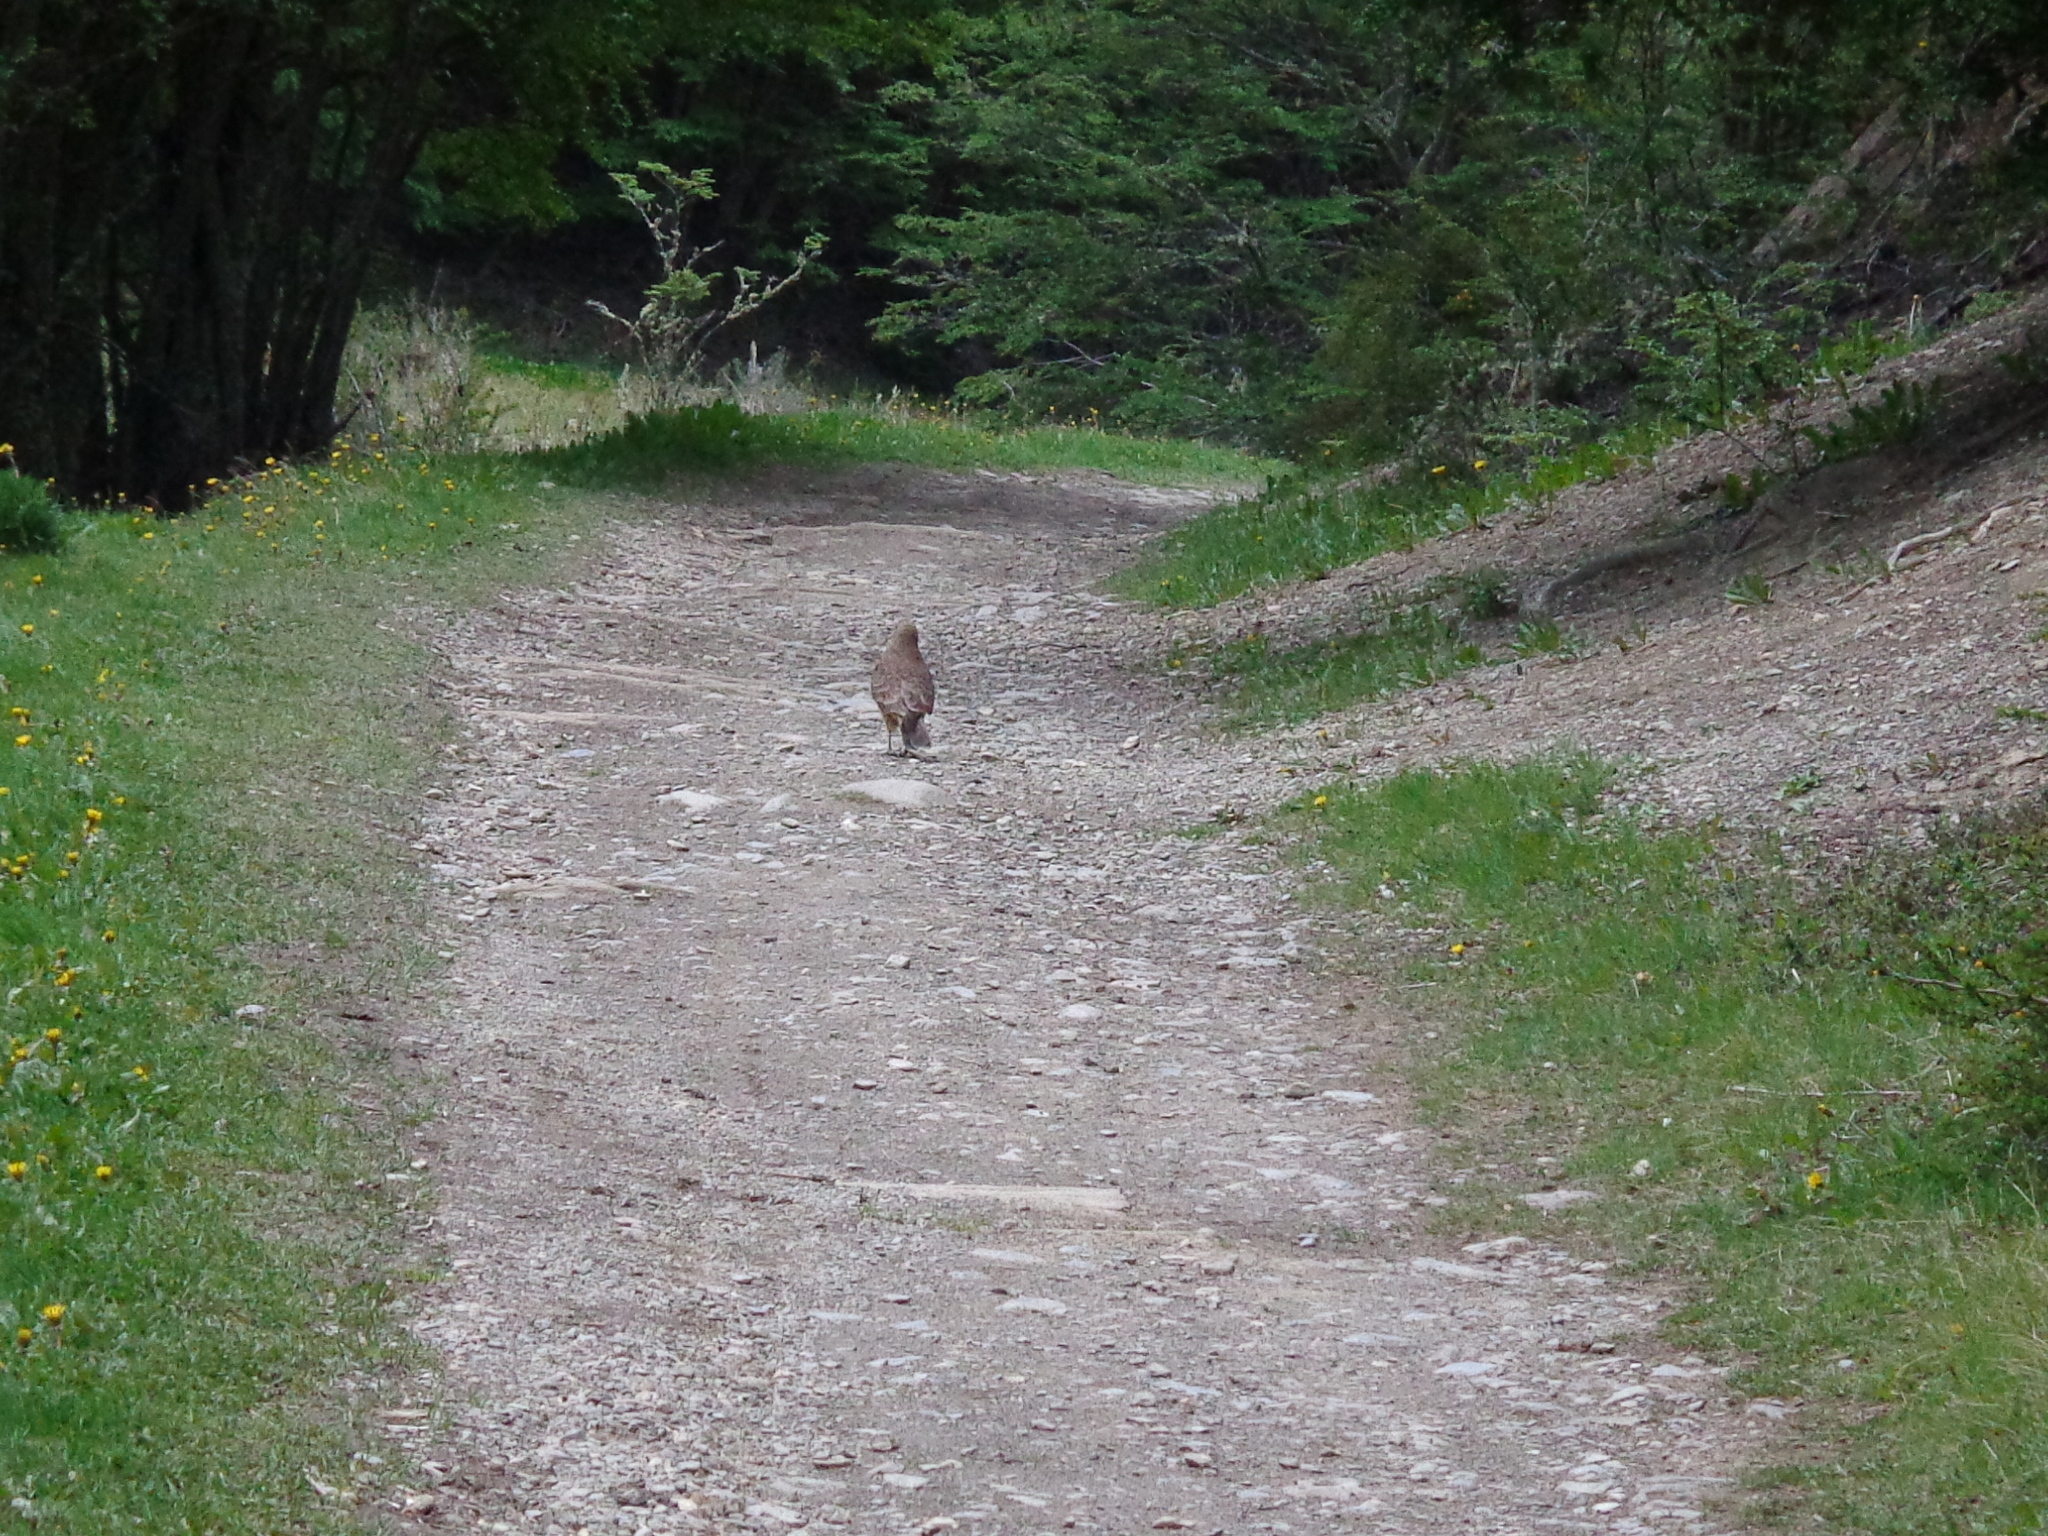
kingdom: Animalia
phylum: Chordata
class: Aves
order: Falconiformes
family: Falconidae
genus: Daptrius
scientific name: Daptrius
